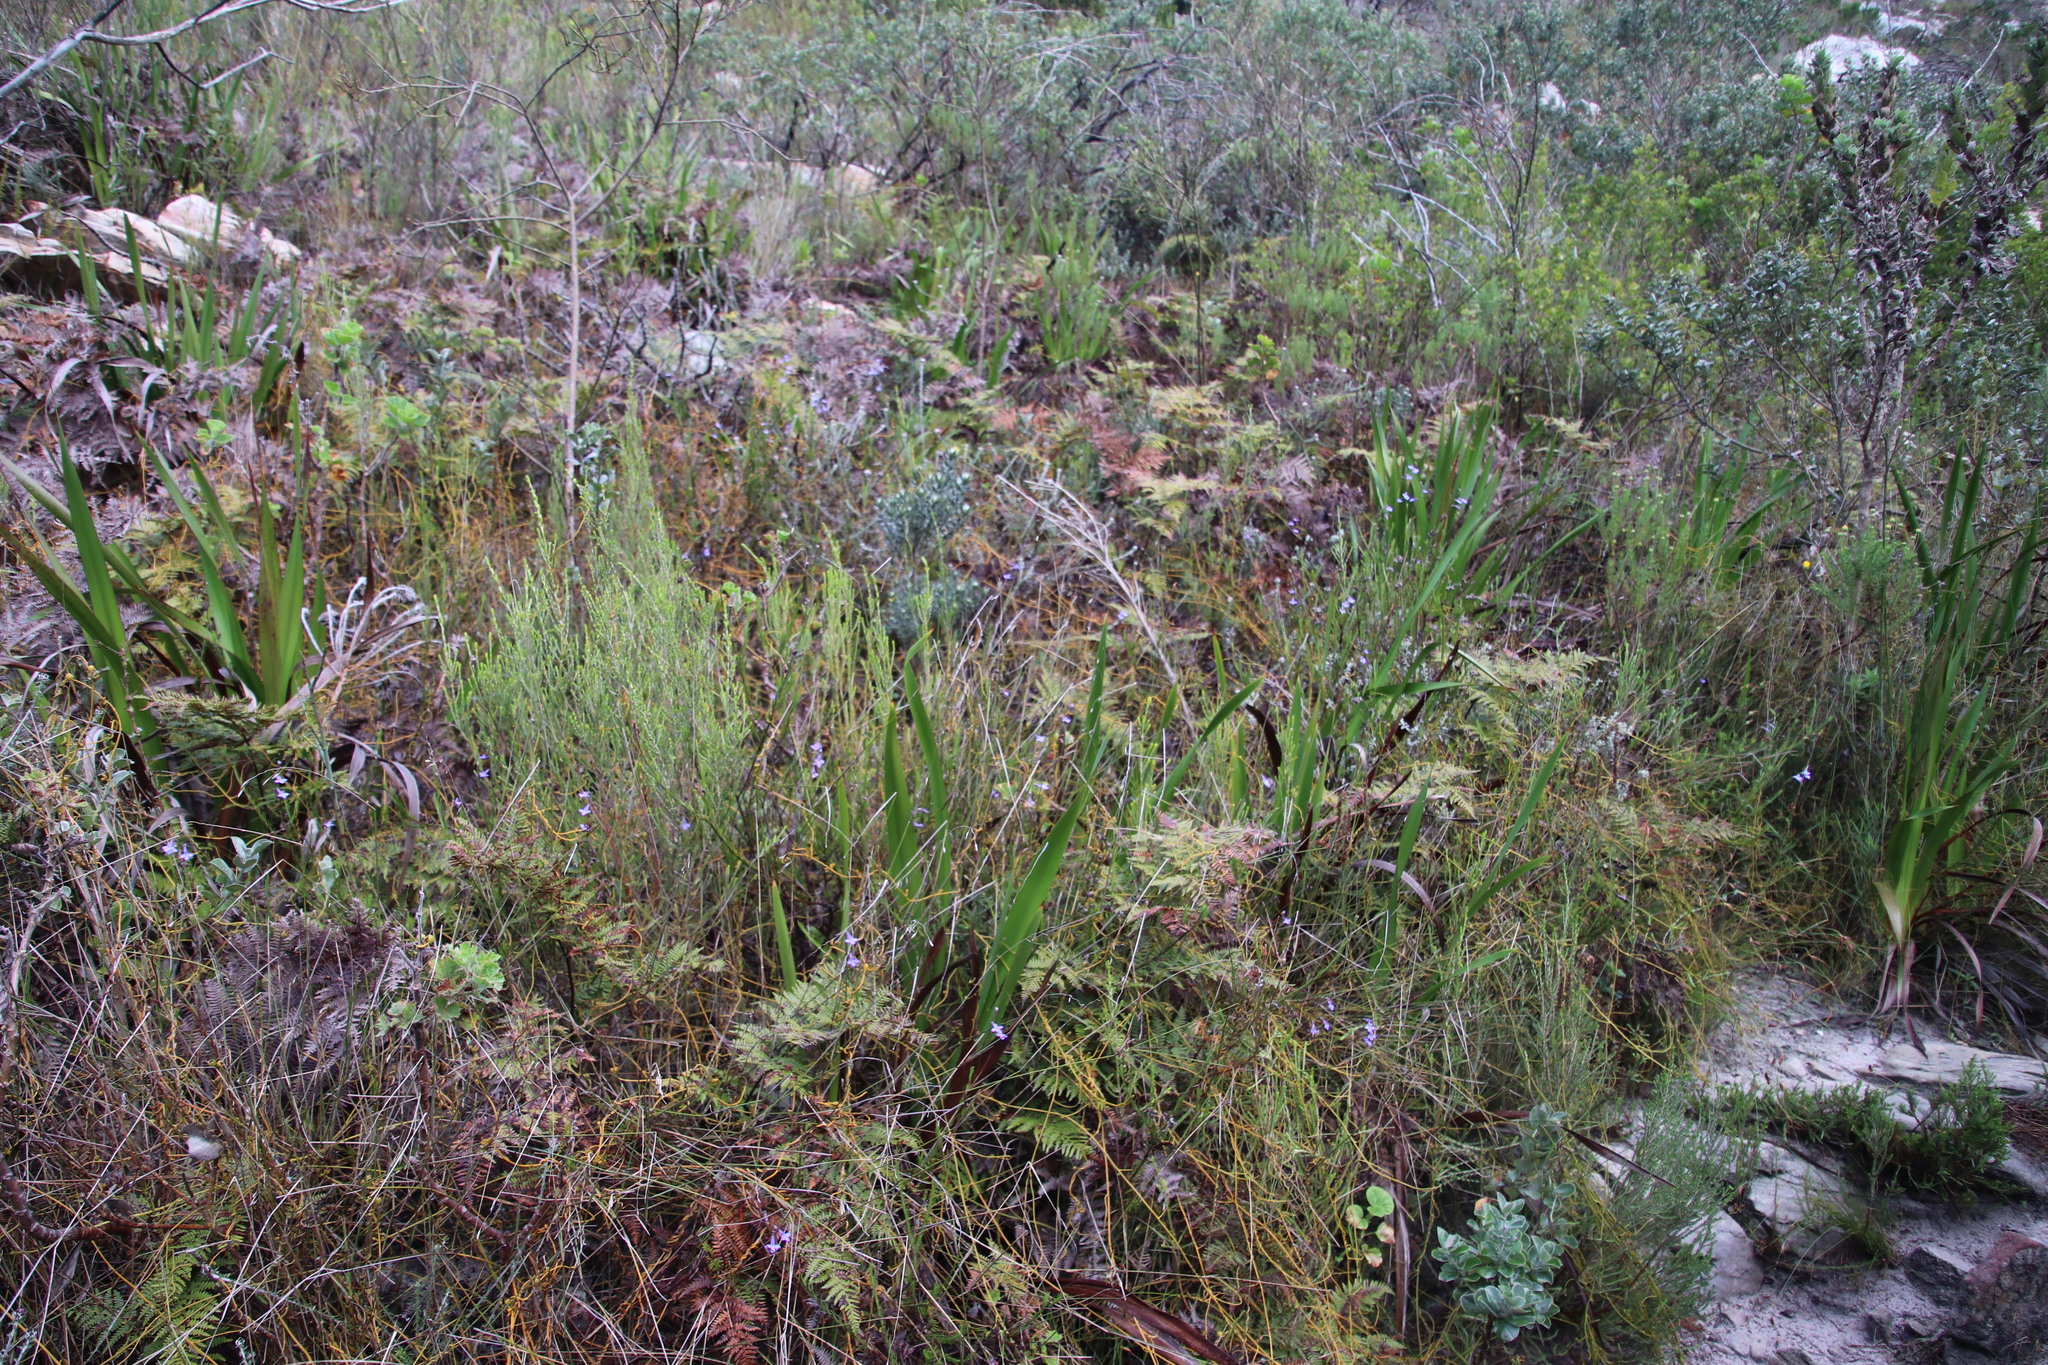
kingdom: Plantae
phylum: Tracheophyta
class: Magnoliopsida
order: Asterales
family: Campanulaceae
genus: Lobelia
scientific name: Lobelia pinifolia
